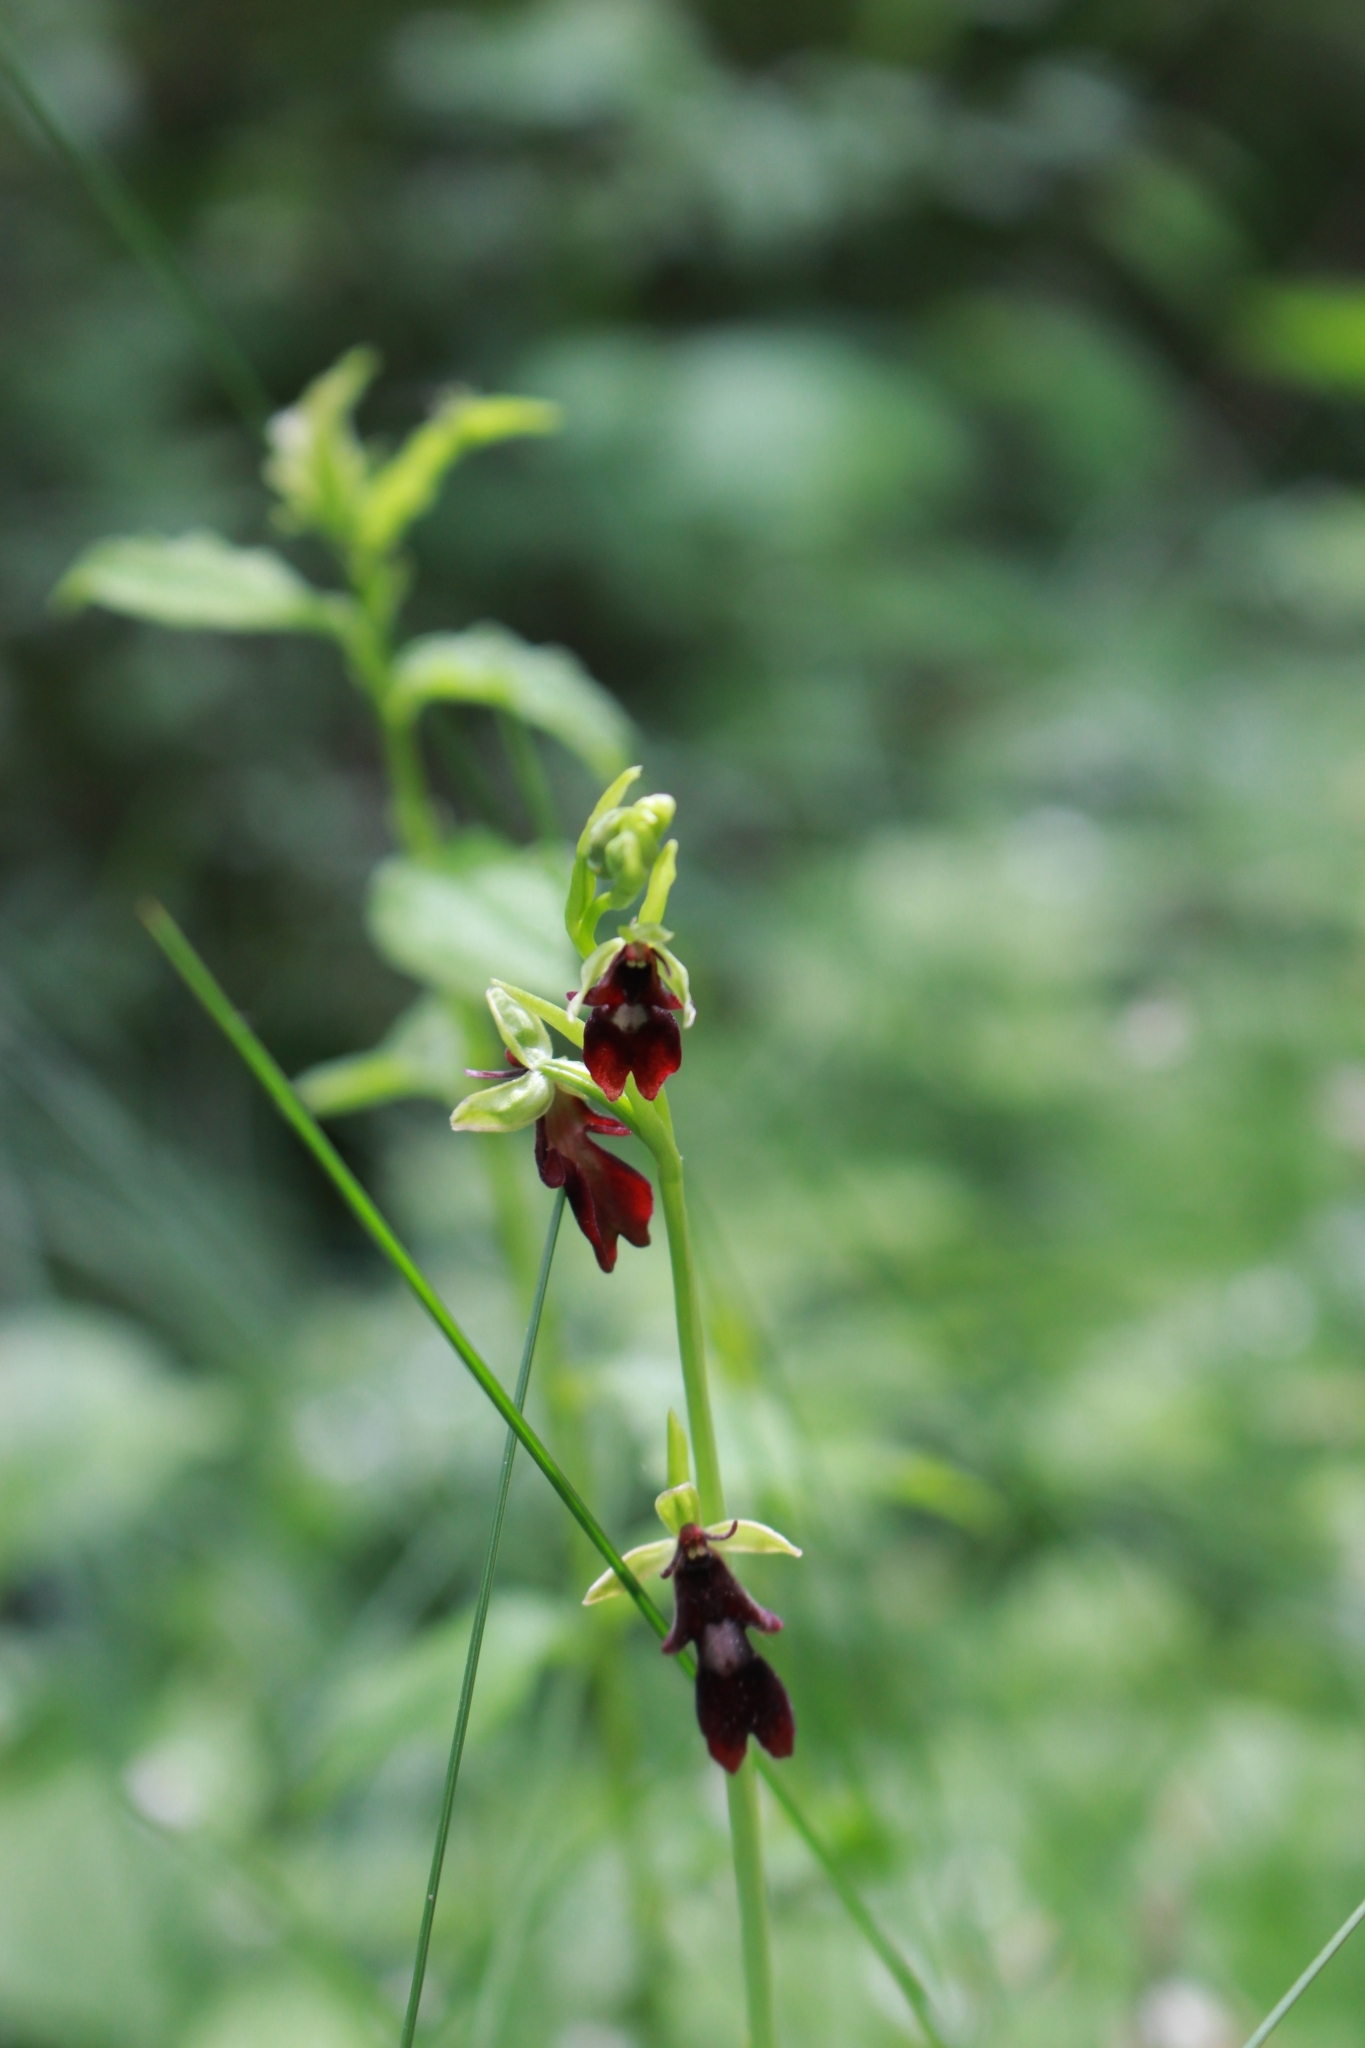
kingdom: Plantae
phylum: Tracheophyta
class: Liliopsida
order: Asparagales
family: Orchidaceae
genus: Ophrys
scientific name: Ophrys insectifera
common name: Fly orchid
